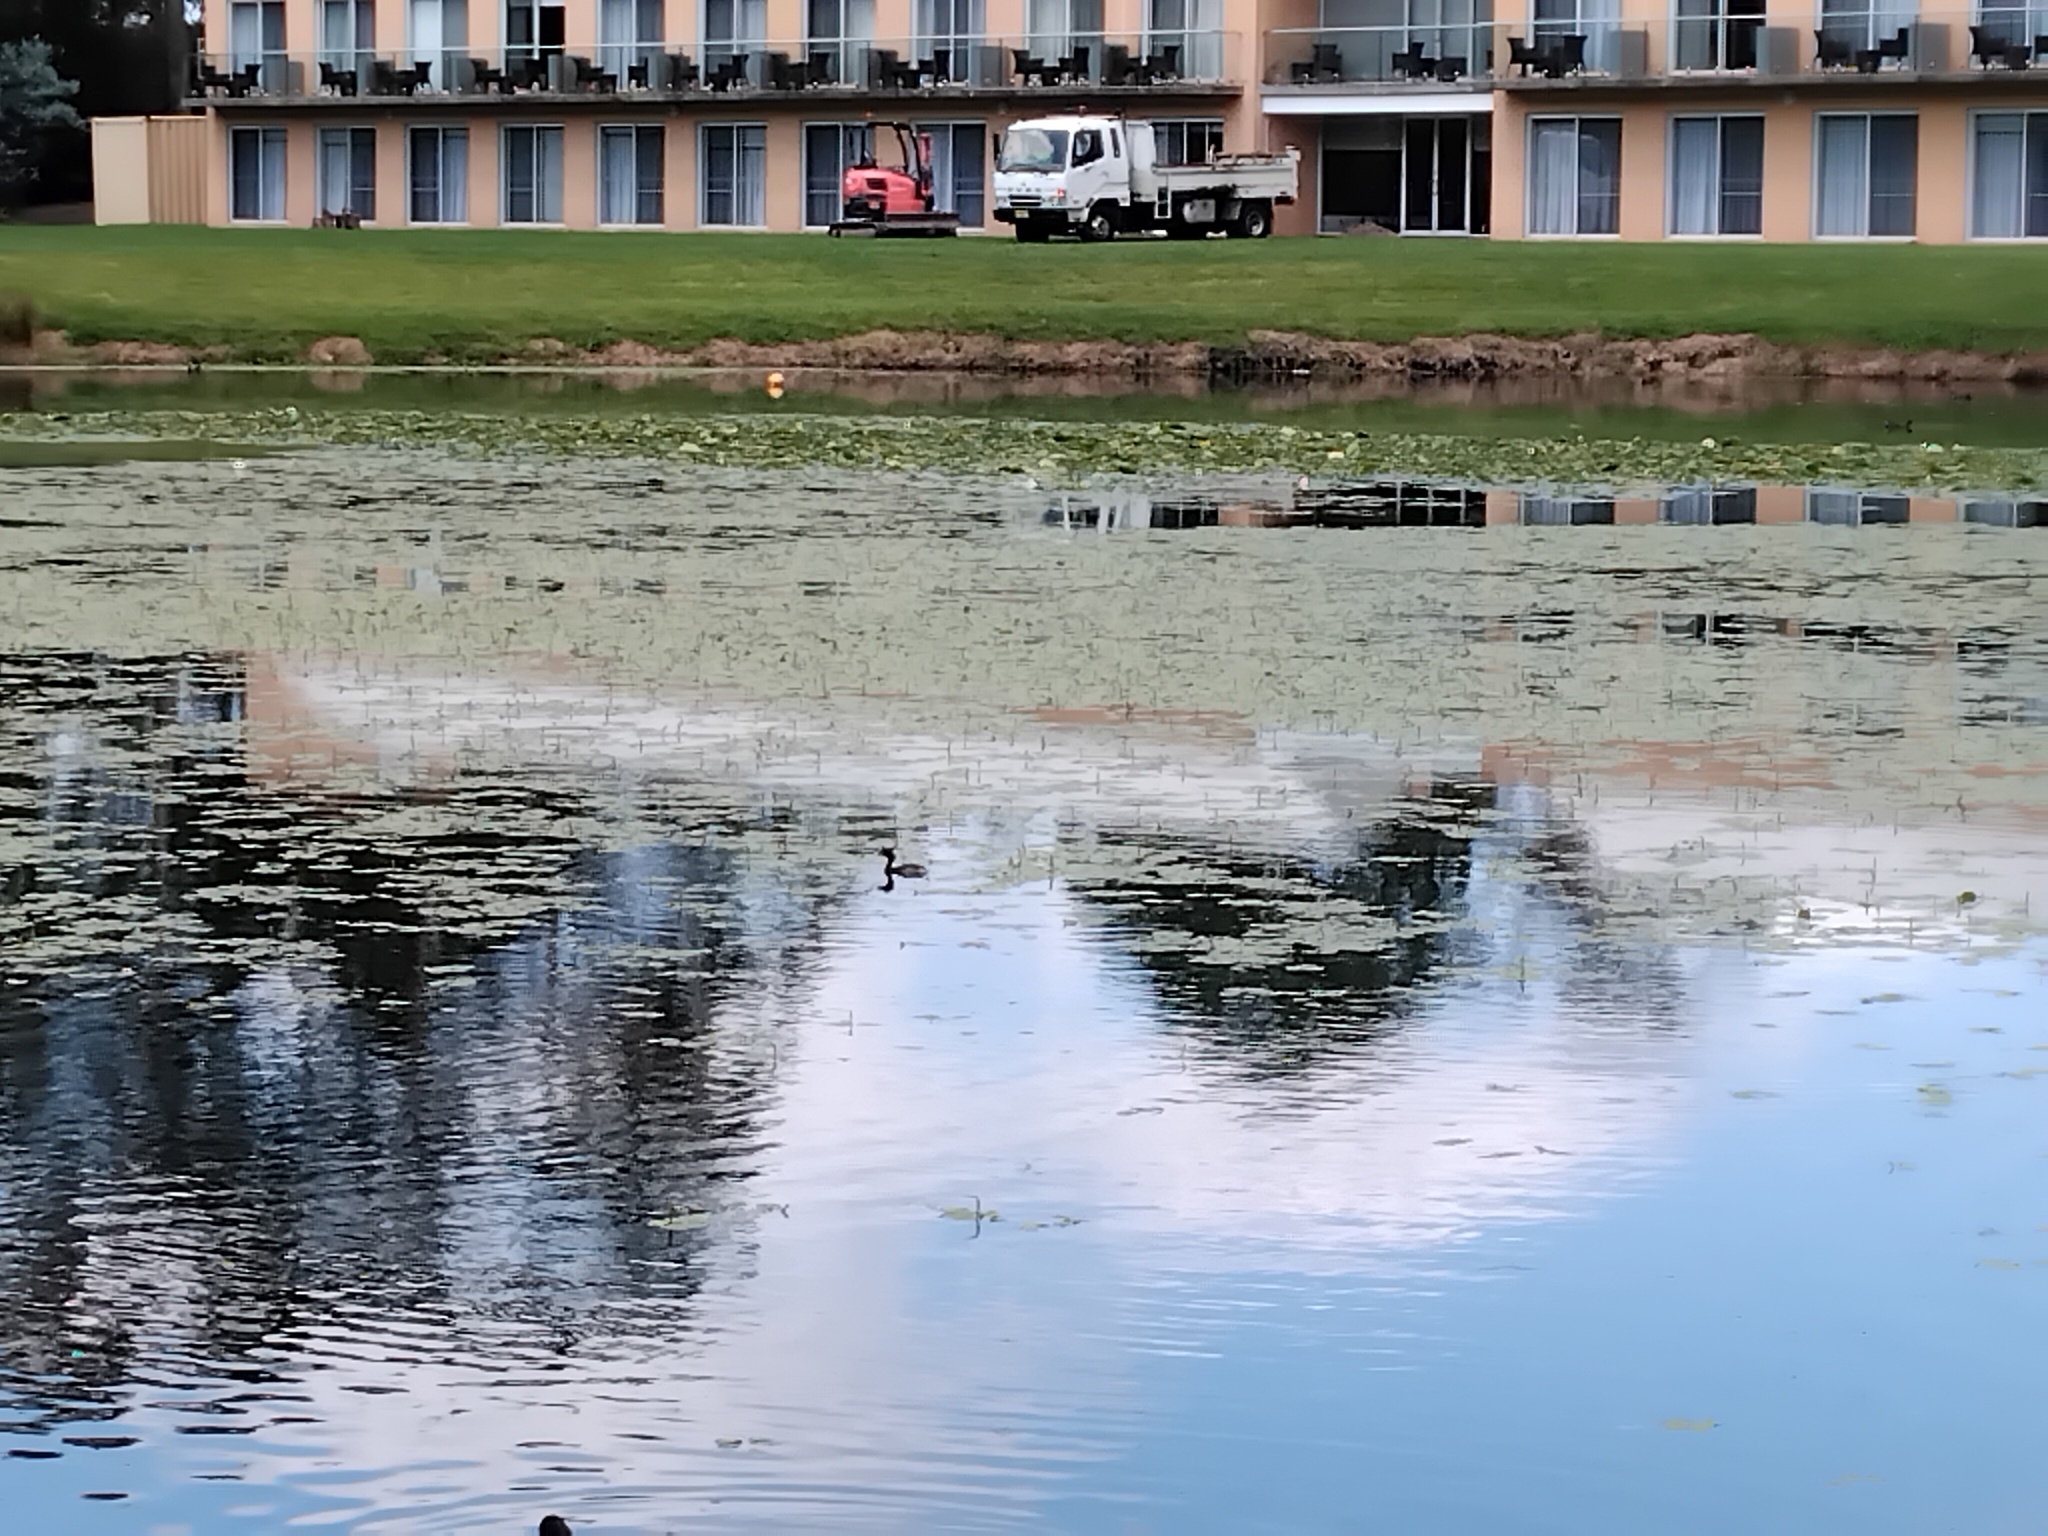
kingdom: Animalia
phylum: Chordata
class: Aves
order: Podicipediformes
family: Podicipedidae
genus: Tachybaptus
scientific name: Tachybaptus novaehollandiae
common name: Australasian grebe
